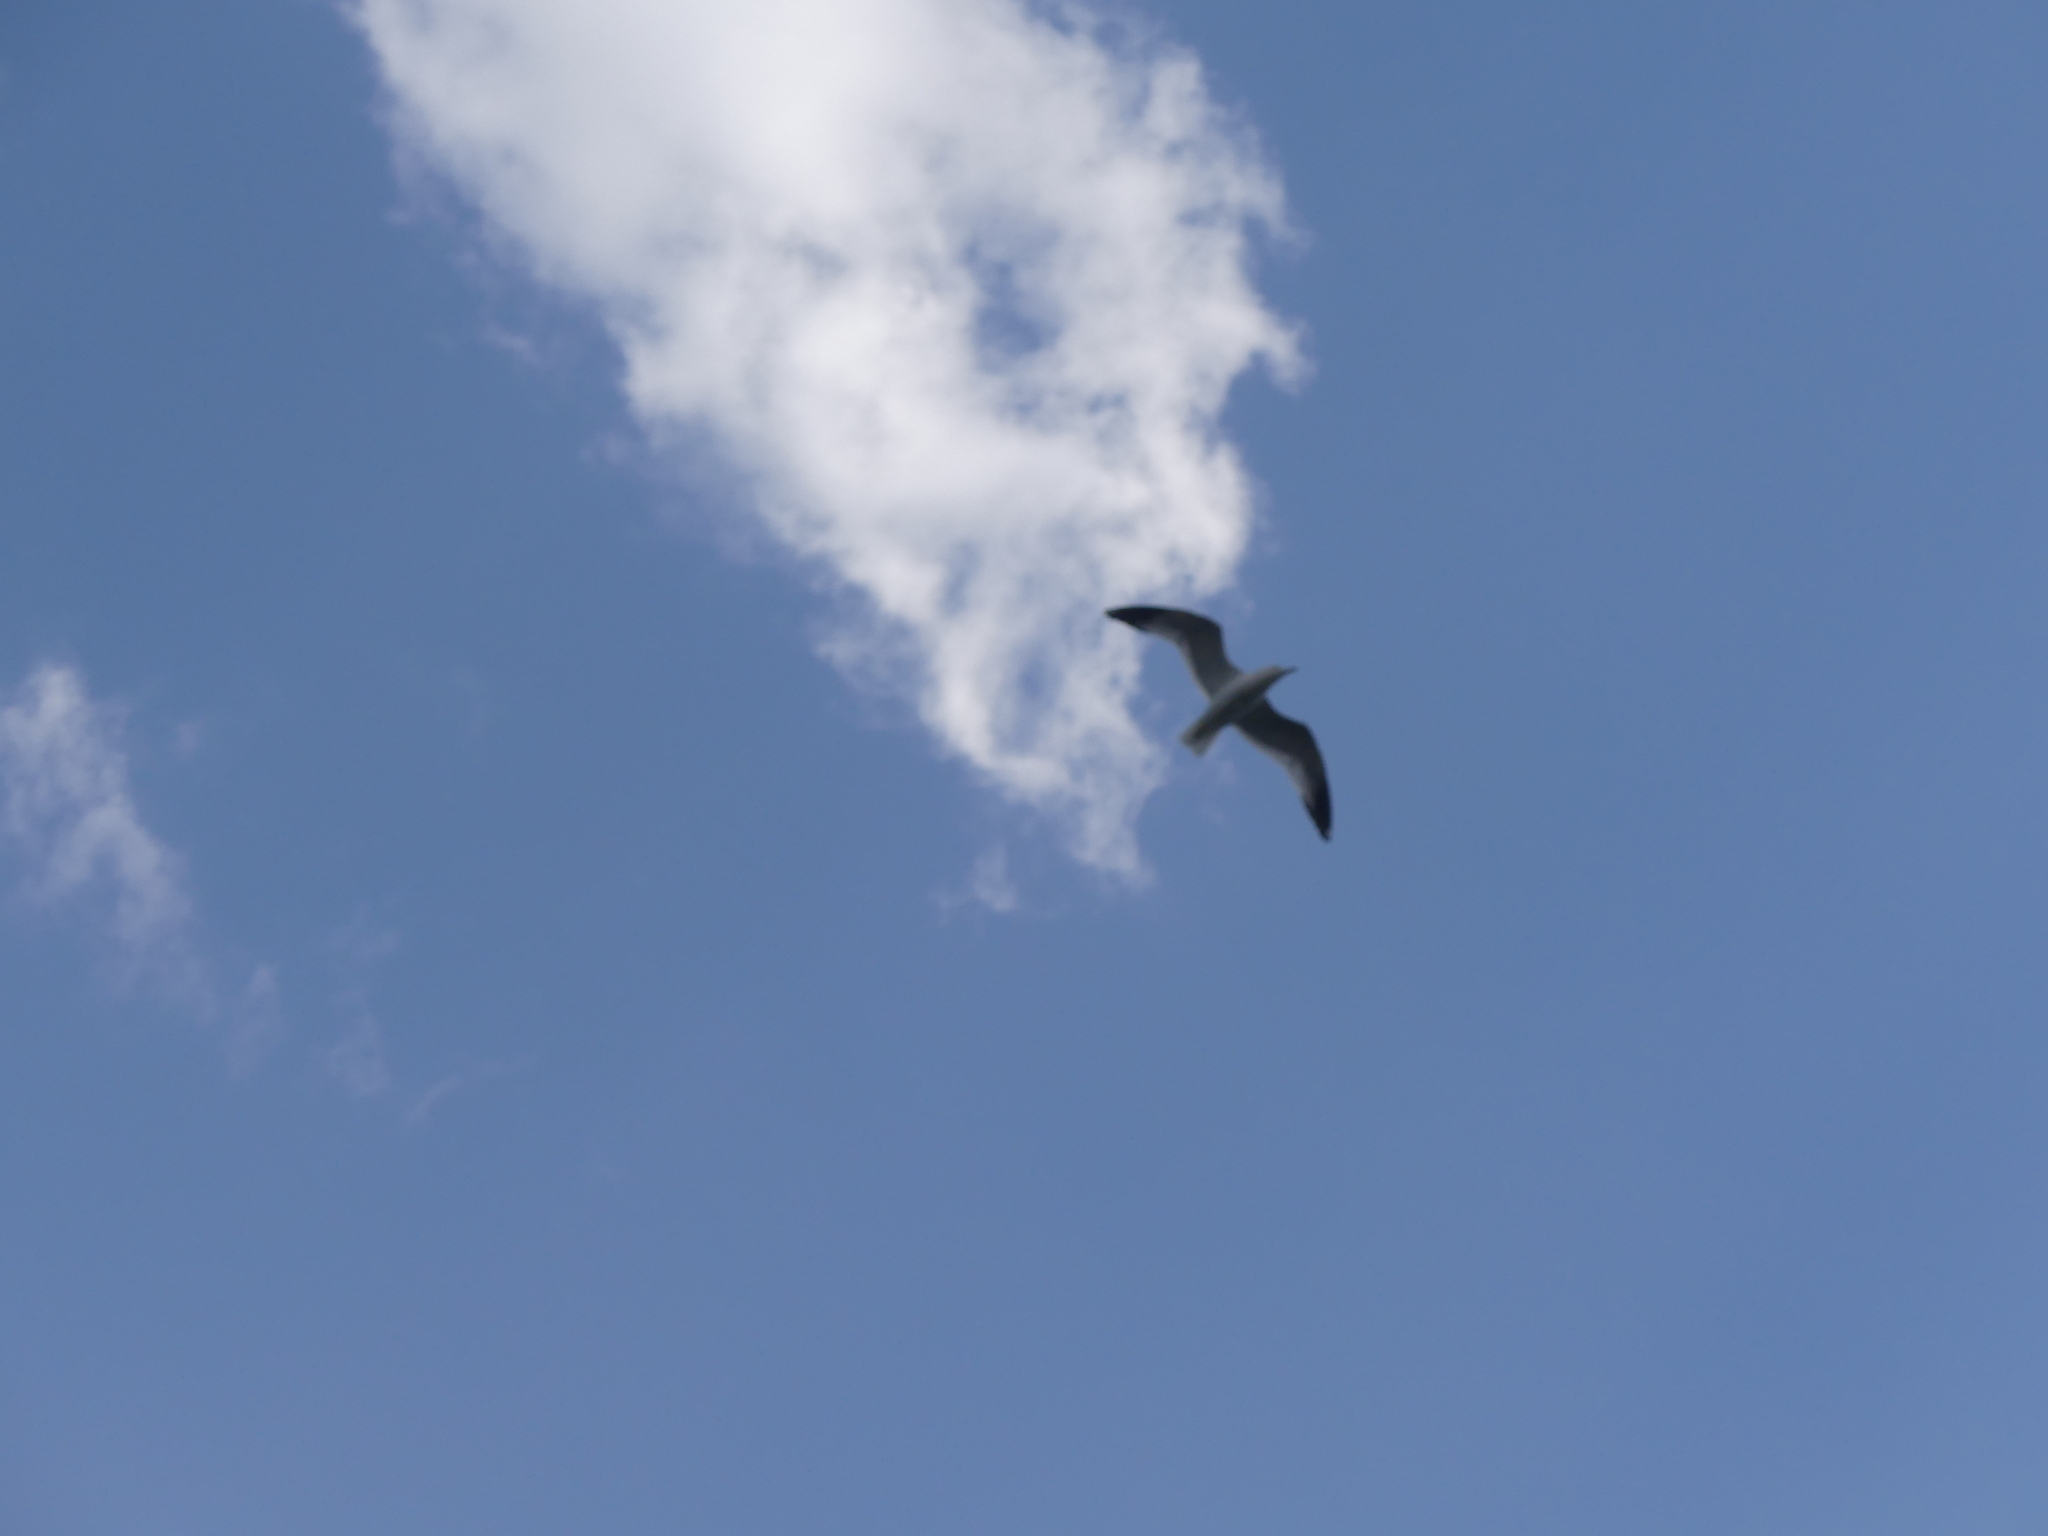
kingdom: Animalia
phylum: Chordata
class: Aves
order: Charadriiformes
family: Laridae
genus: Larus
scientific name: Larus delawarensis
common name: Ring-billed gull
